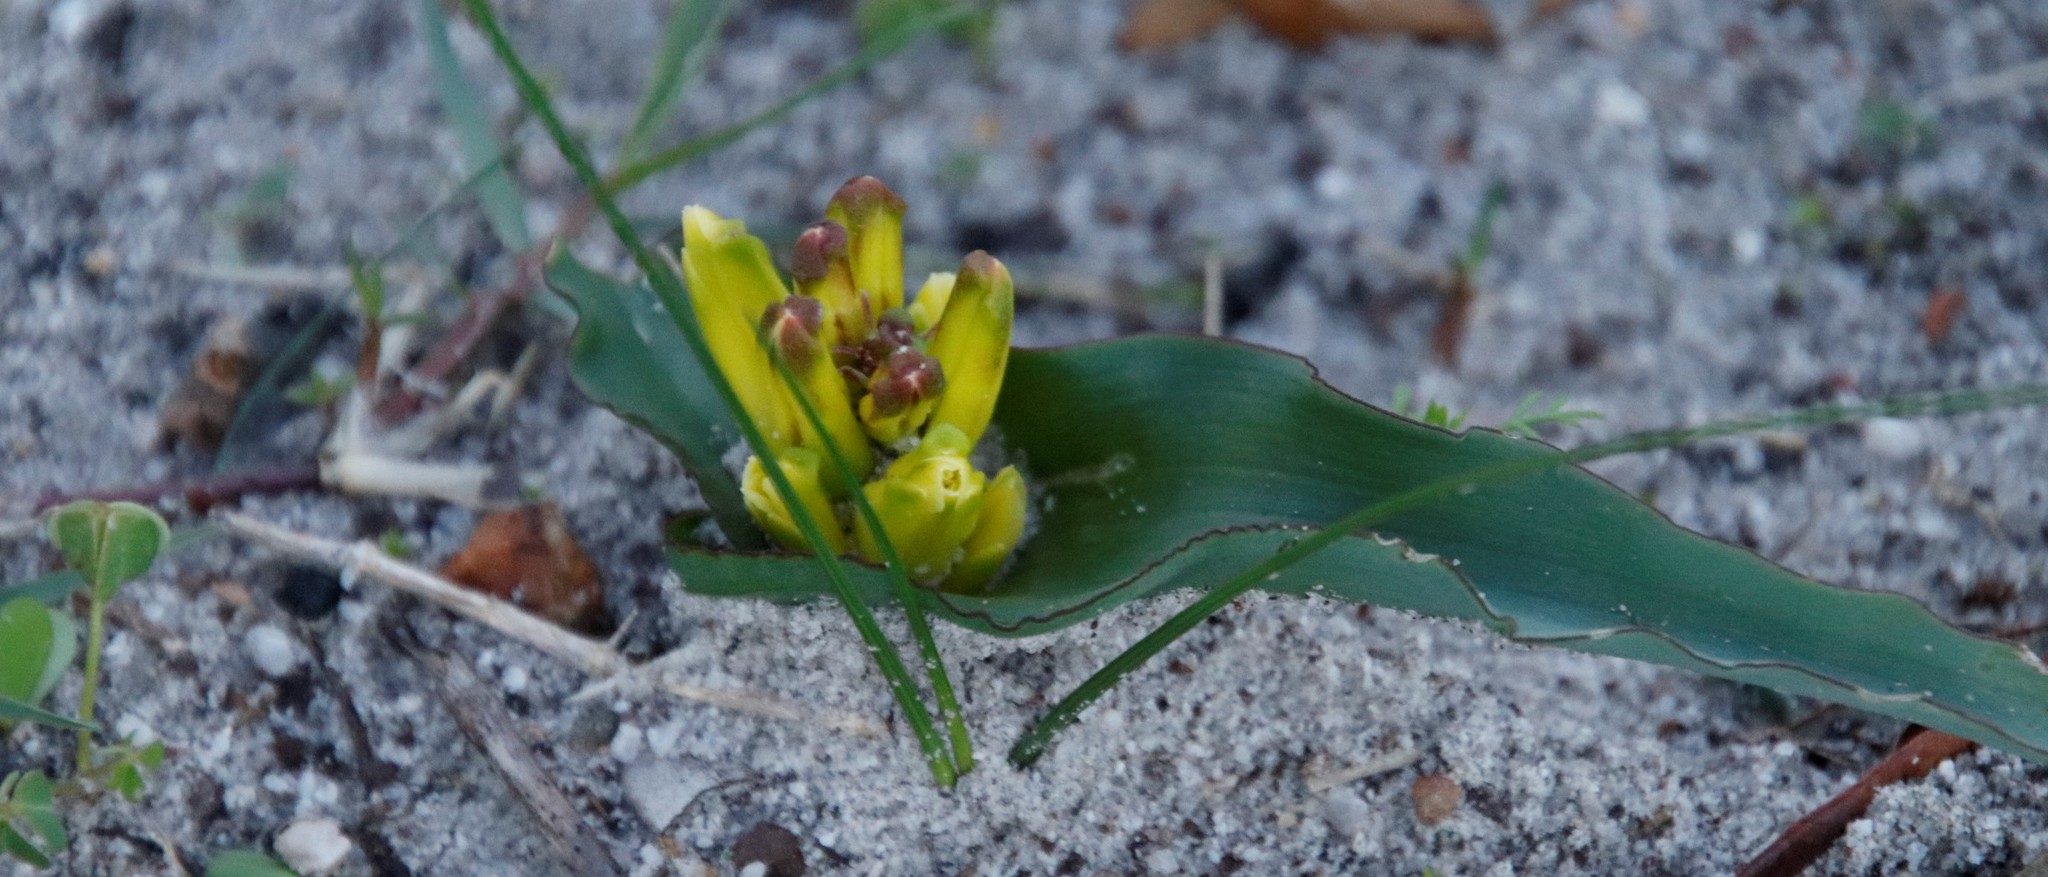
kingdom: Plantae
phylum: Tracheophyta
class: Liliopsida
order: Asparagales
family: Asparagaceae
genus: Lachenalia
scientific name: Lachenalia reflexa
